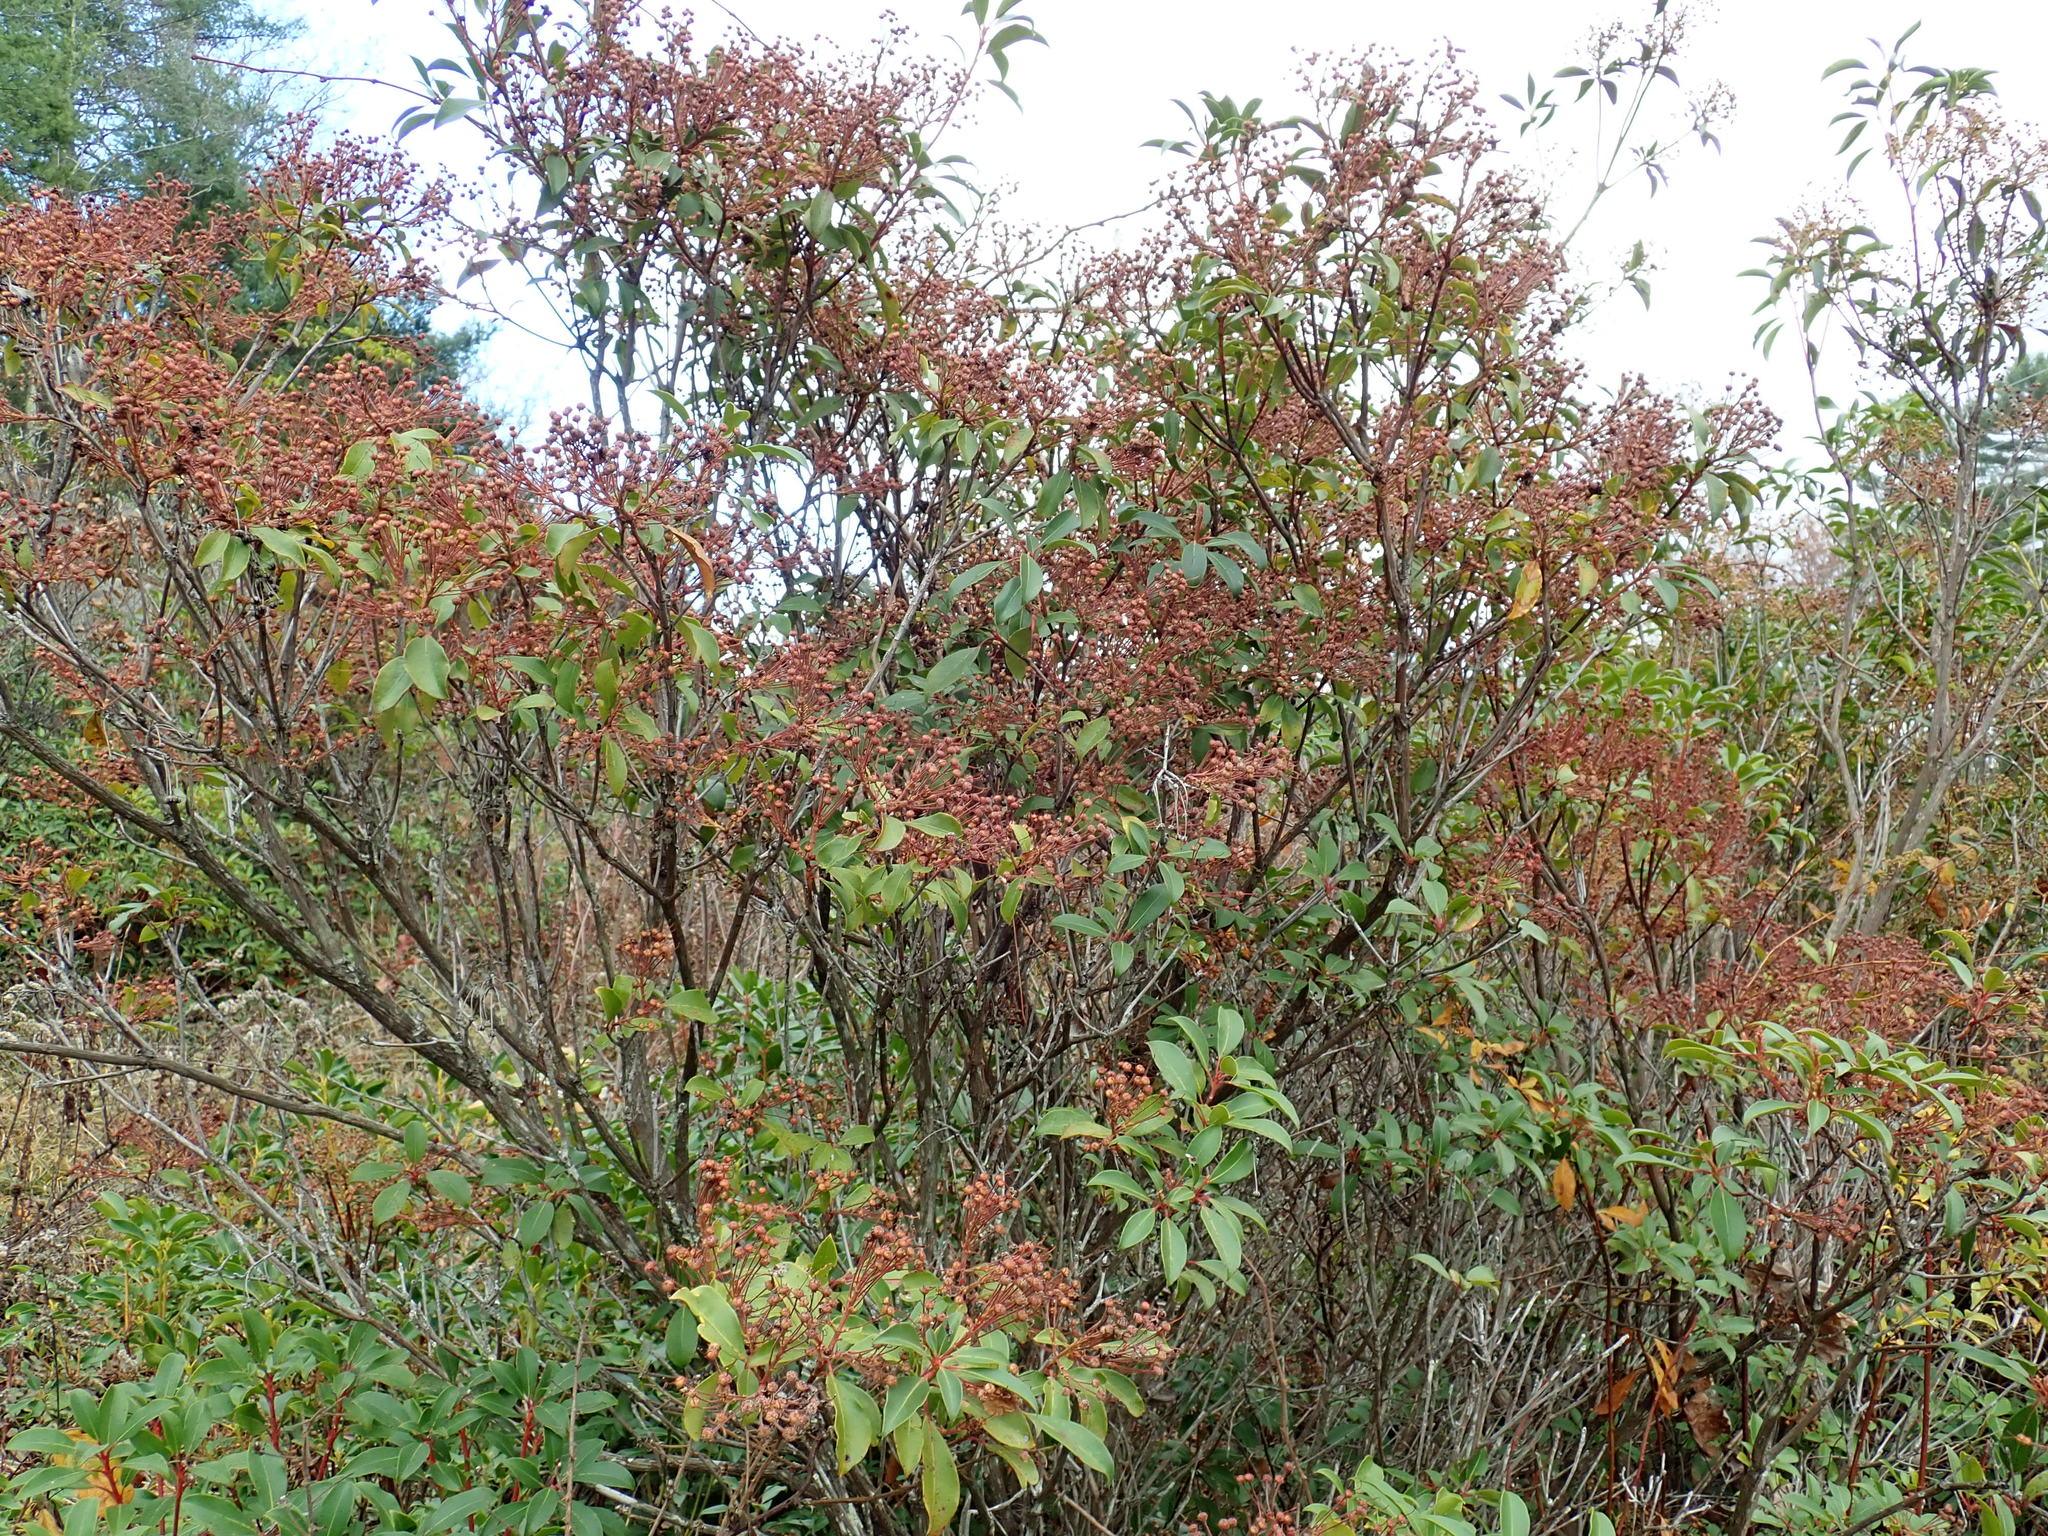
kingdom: Plantae
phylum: Tracheophyta
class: Magnoliopsida
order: Ericales
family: Ericaceae
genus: Kalmia
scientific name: Kalmia latifolia
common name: Mountain-laurel
